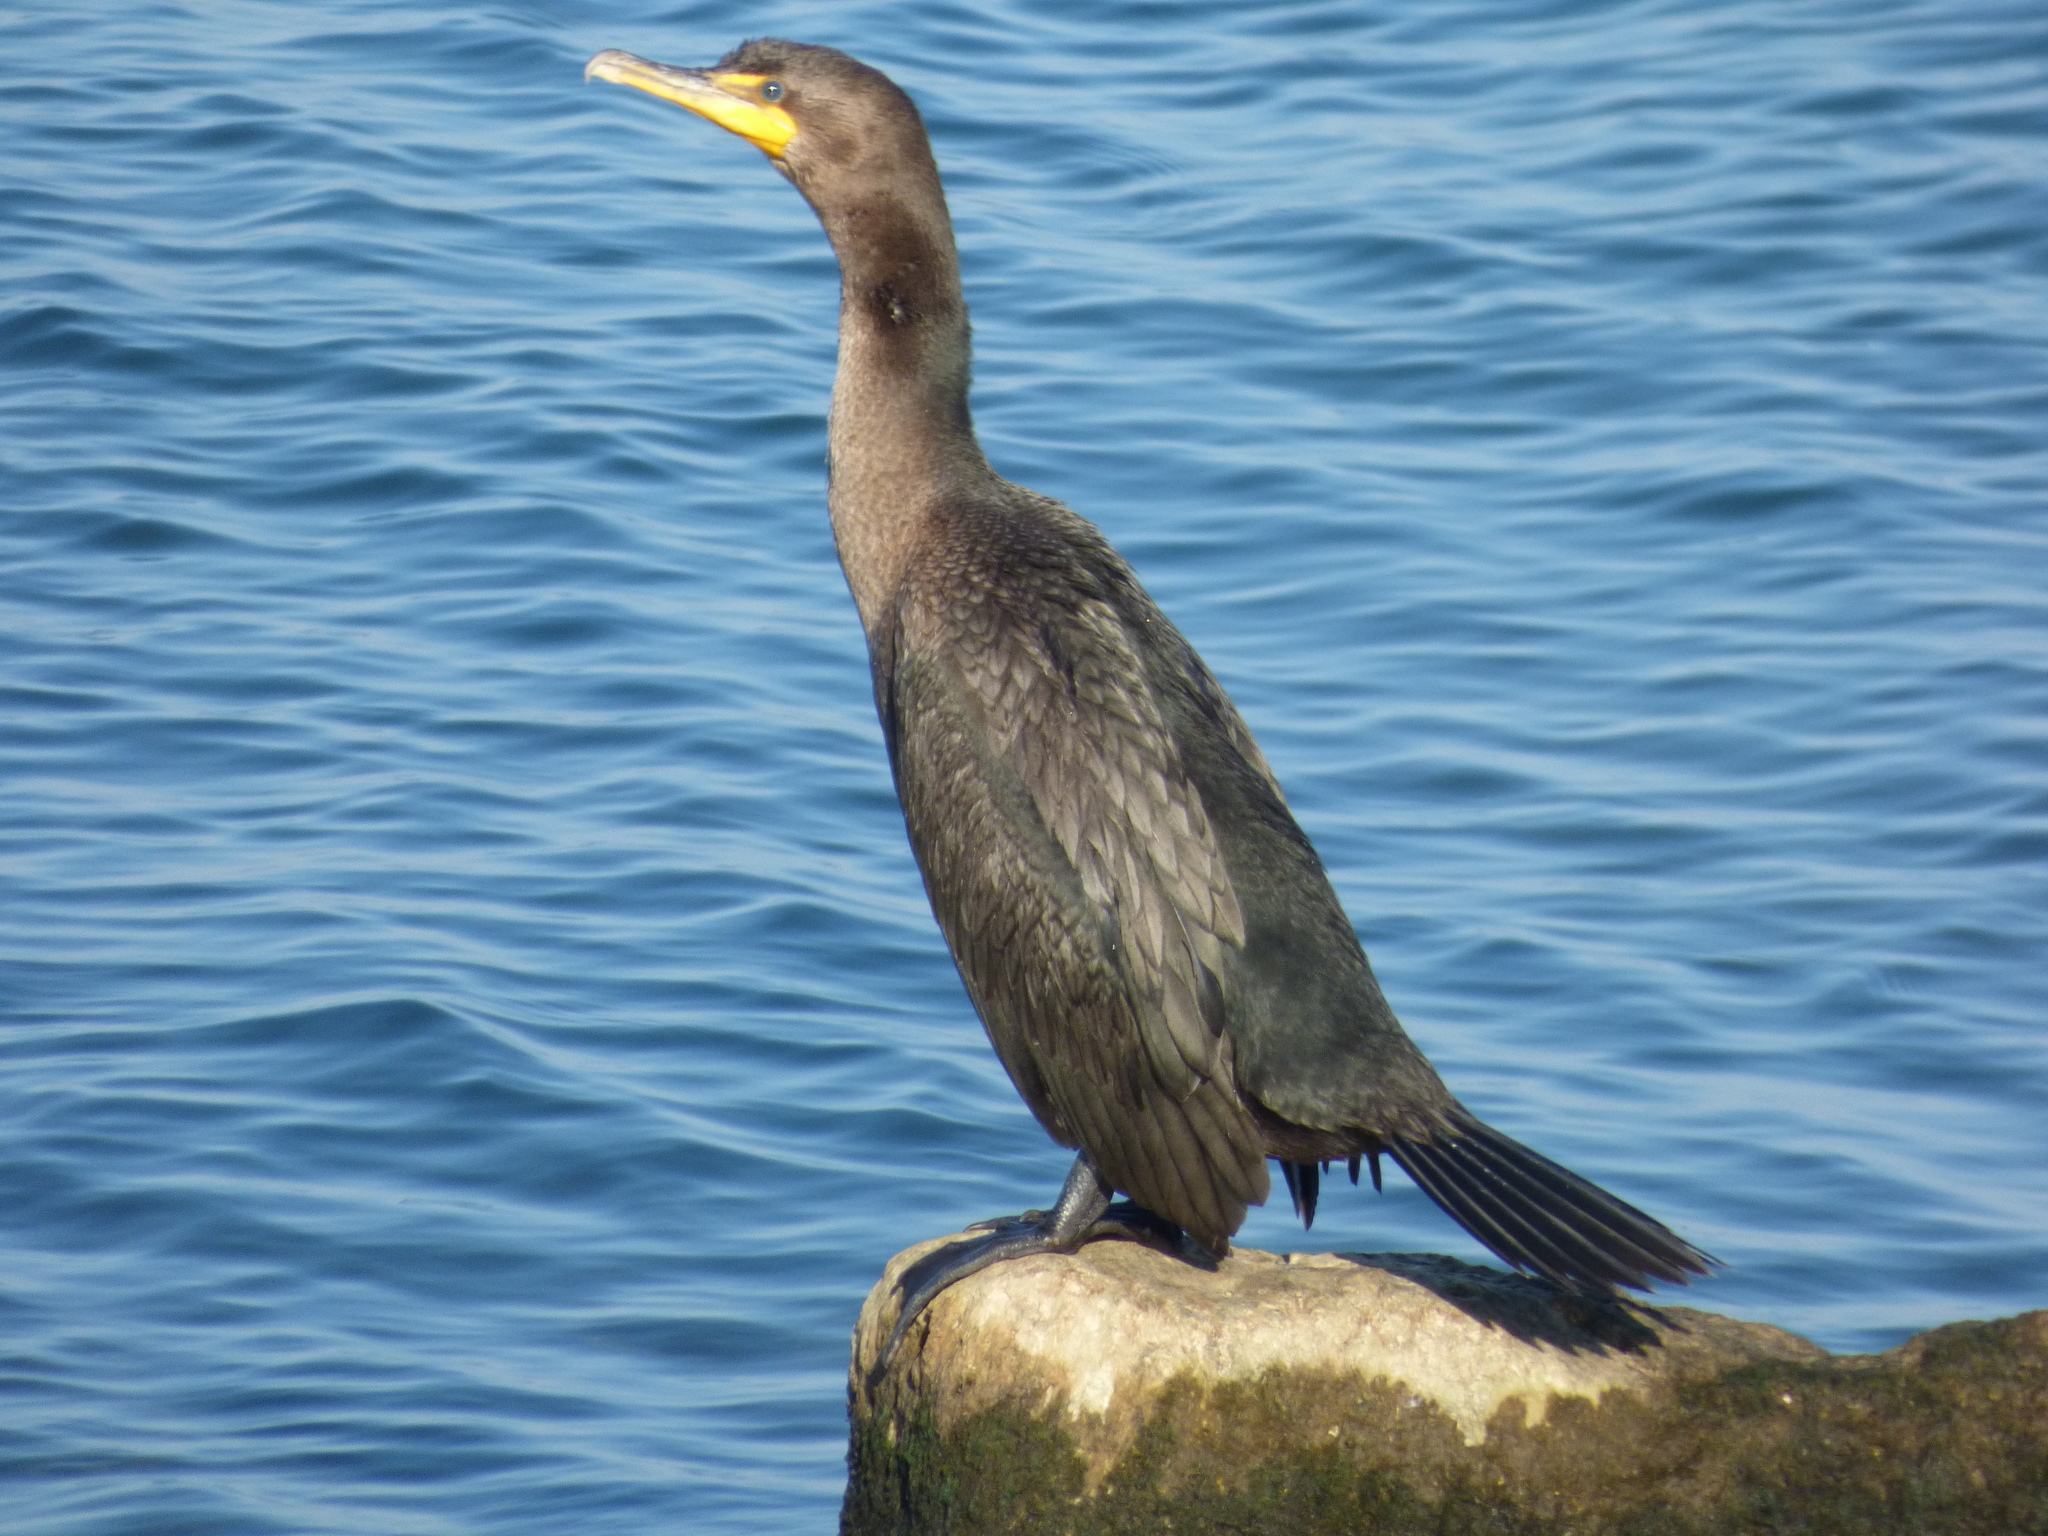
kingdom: Animalia
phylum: Chordata
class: Aves
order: Suliformes
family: Phalacrocoracidae
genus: Phalacrocorax
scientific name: Phalacrocorax auritus
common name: Double-crested cormorant
